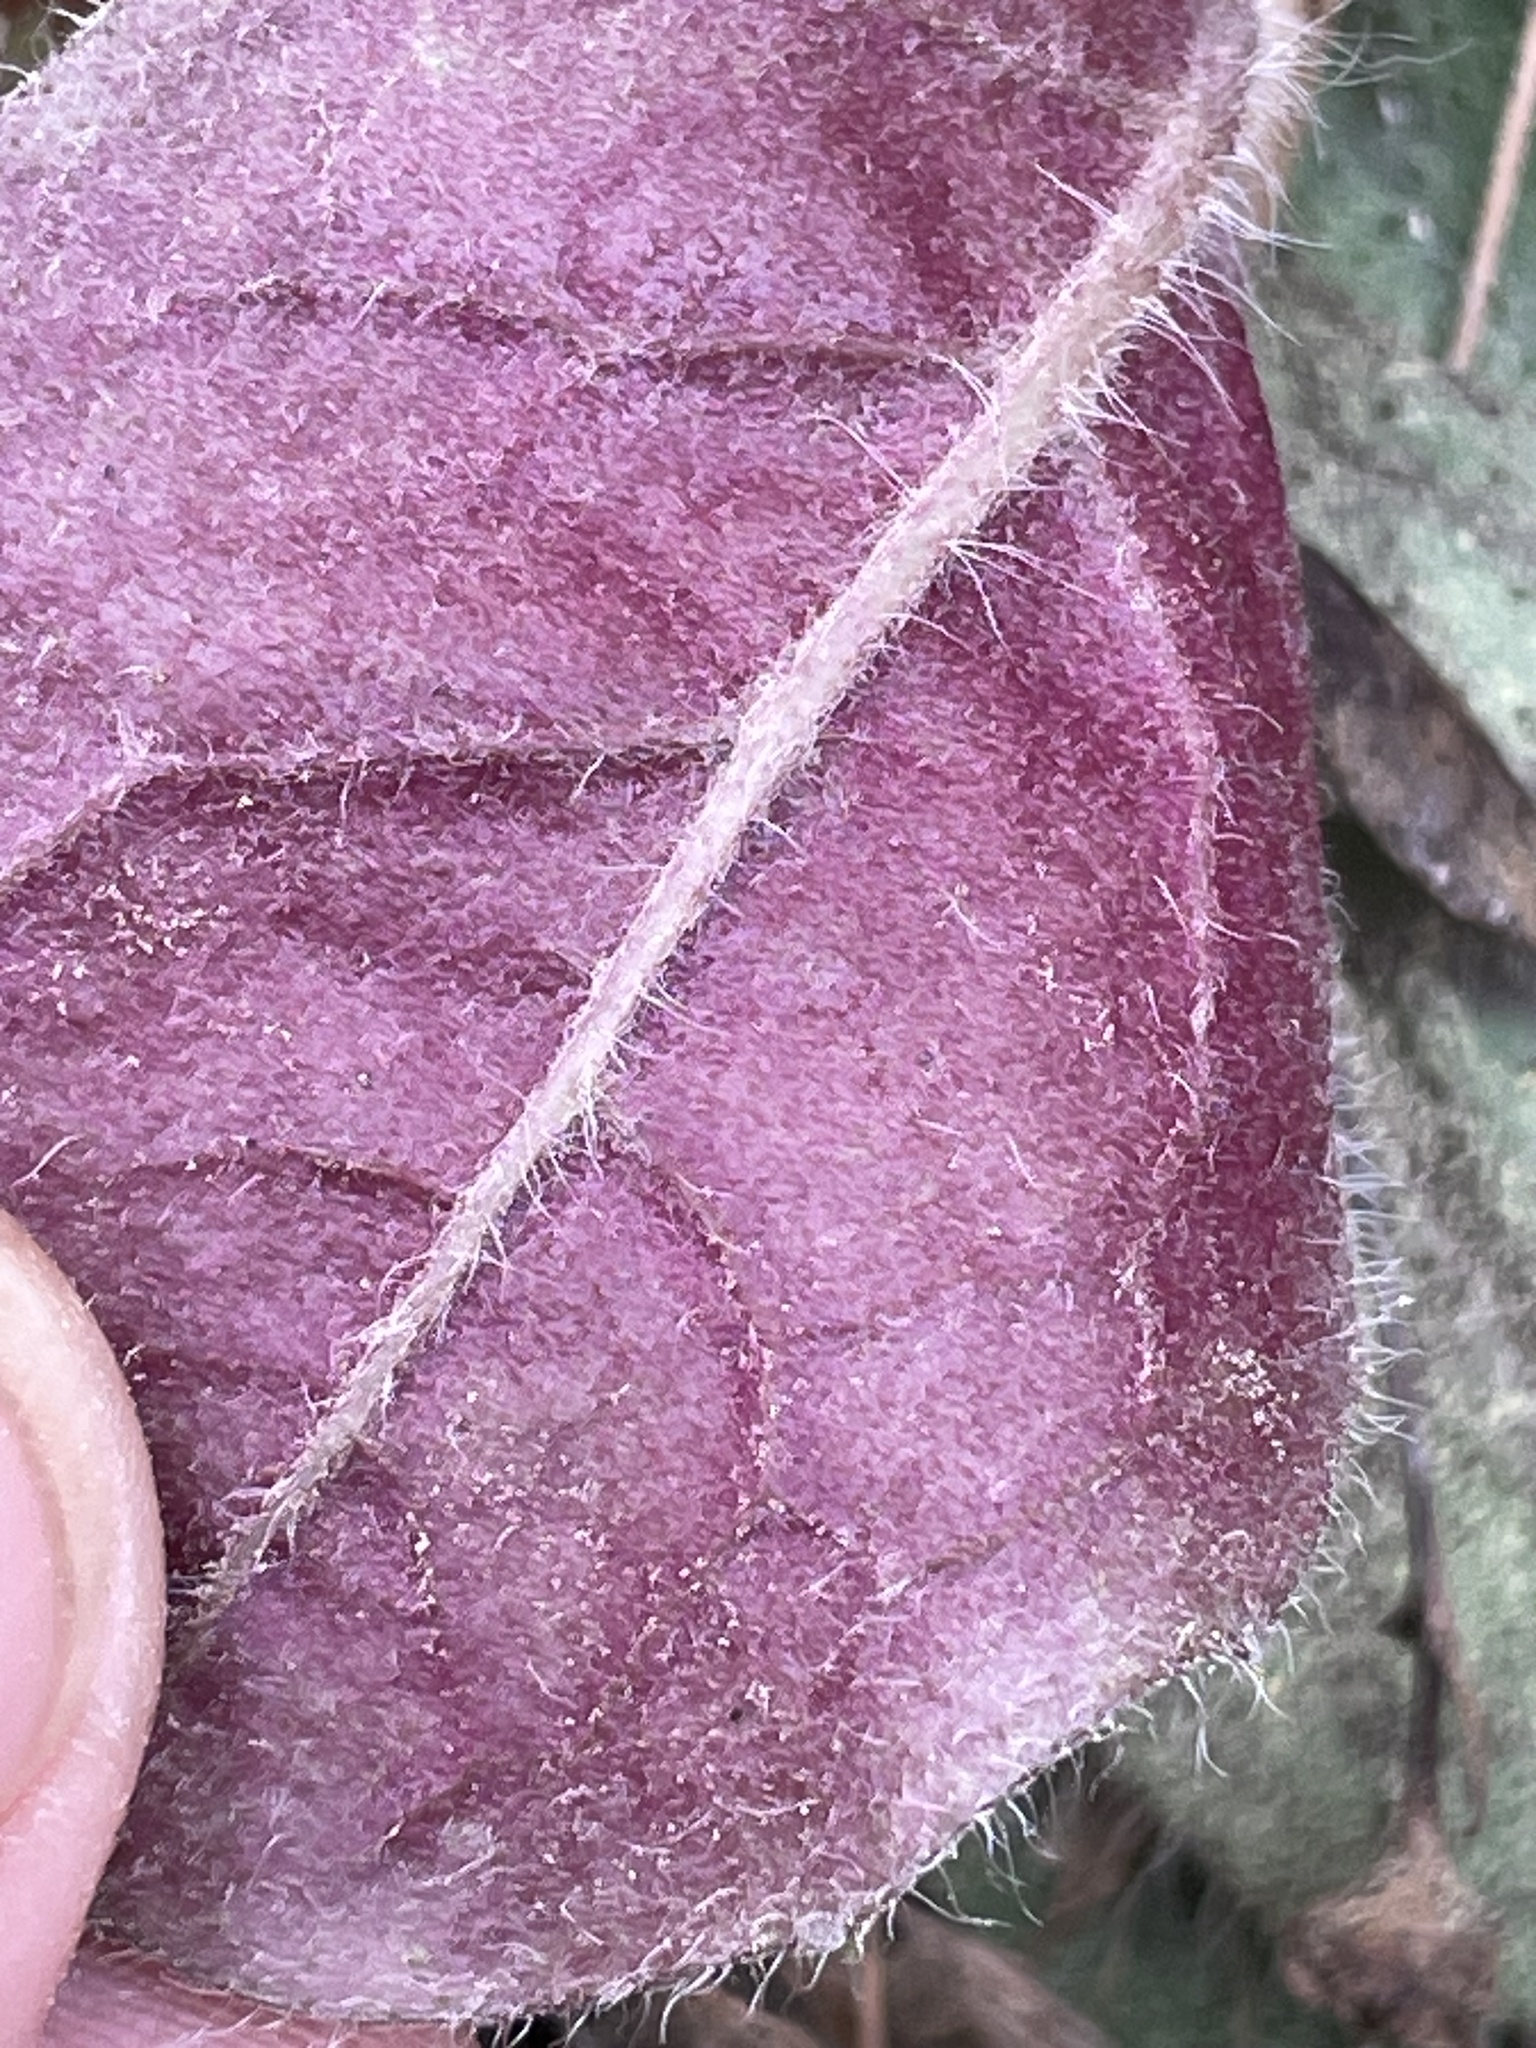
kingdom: Plantae
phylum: Tracheophyta
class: Magnoliopsida
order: Asterales
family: Asteraceae
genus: Hieracium
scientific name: Hieracium venosum
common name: Rattlesnake hawkweed
